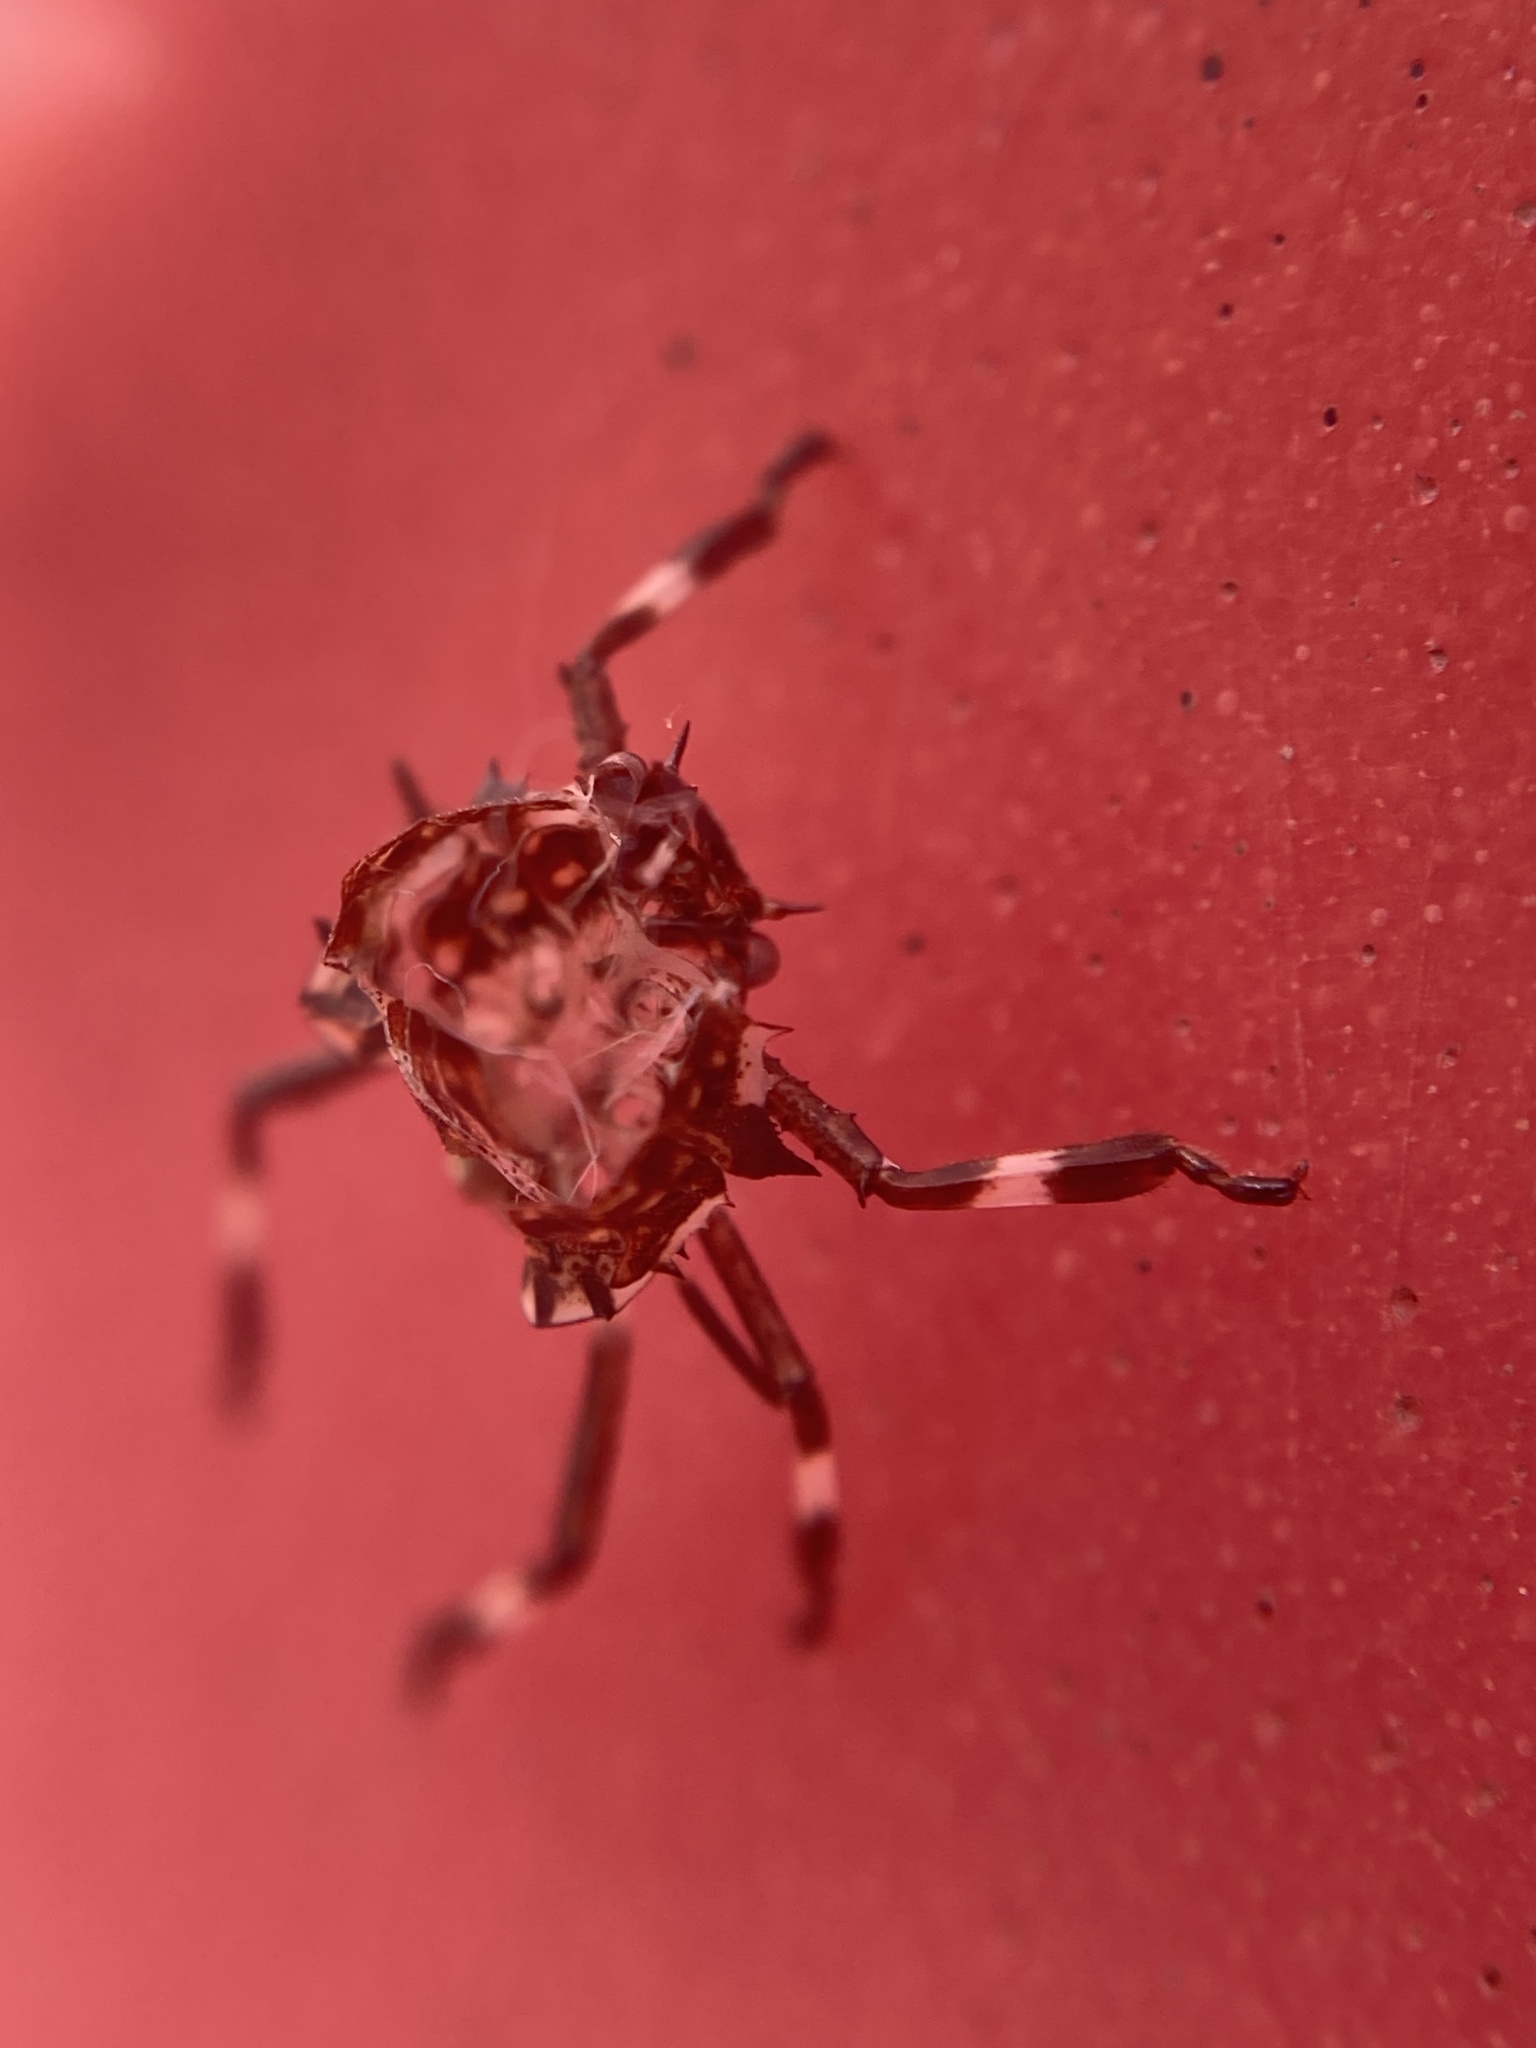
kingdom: Animalia
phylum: Arthropoda
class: Insecta
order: Hemiptera
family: Pentatomidae
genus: Halyomorpha
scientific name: Halyomorpha halys
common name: Brown marmorated stink bug
